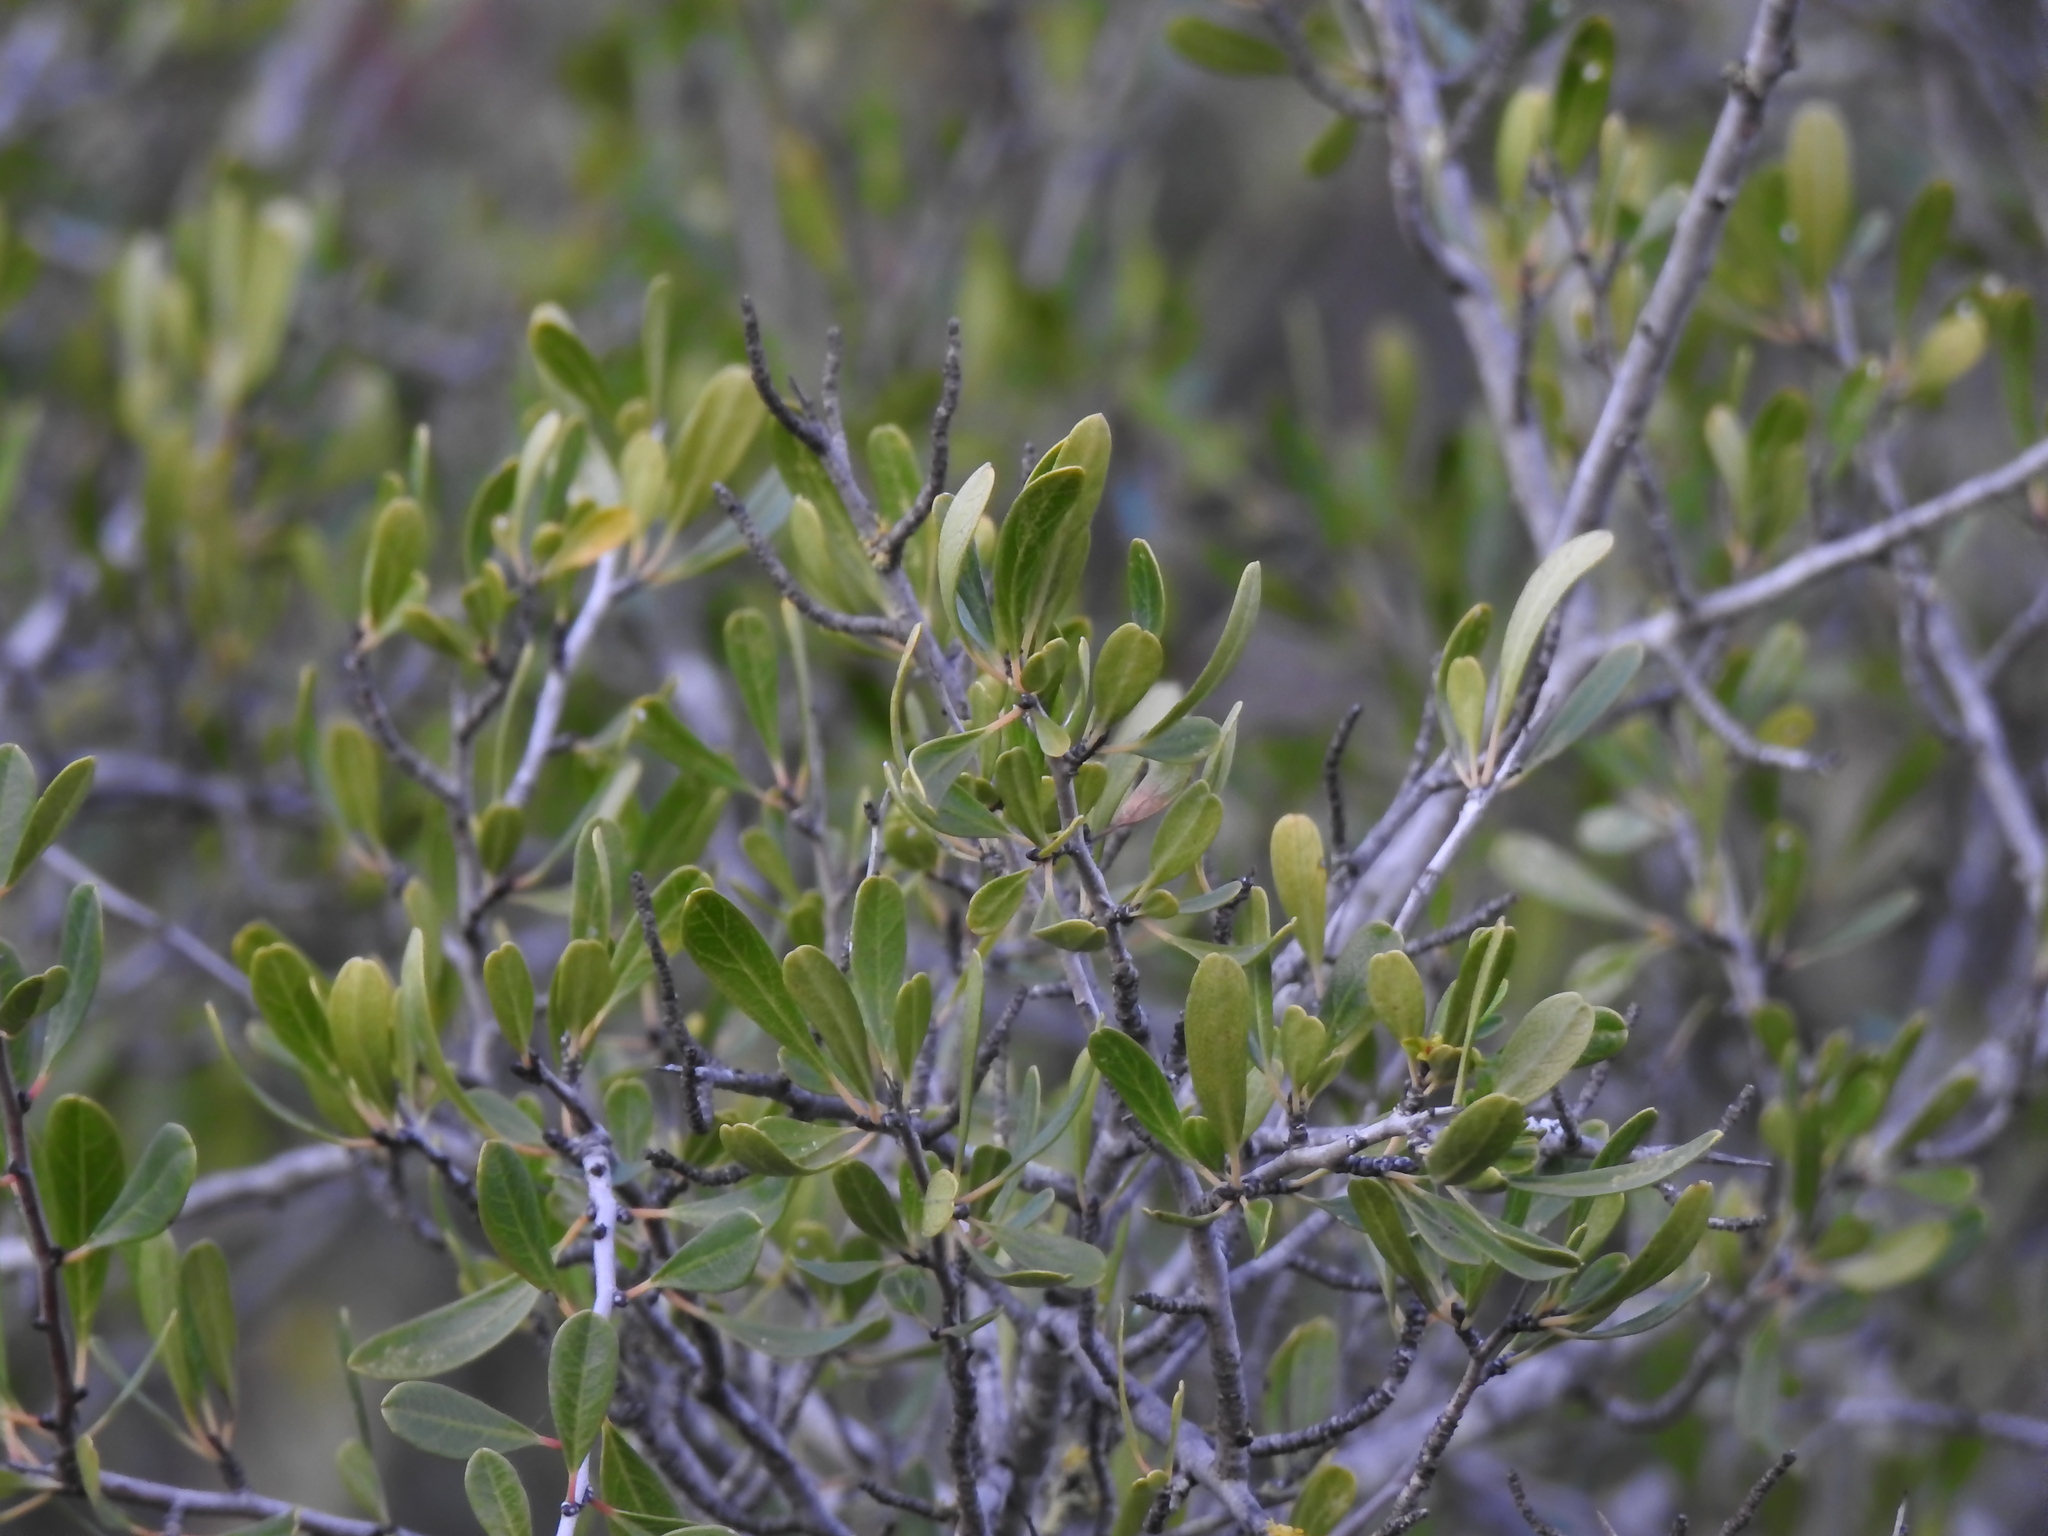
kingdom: Plantae
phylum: Tracheophyta
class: Magnoliopsida
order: Rosales
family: Rhamnaceae
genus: Rhamnus
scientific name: Rhamnus oleoides
